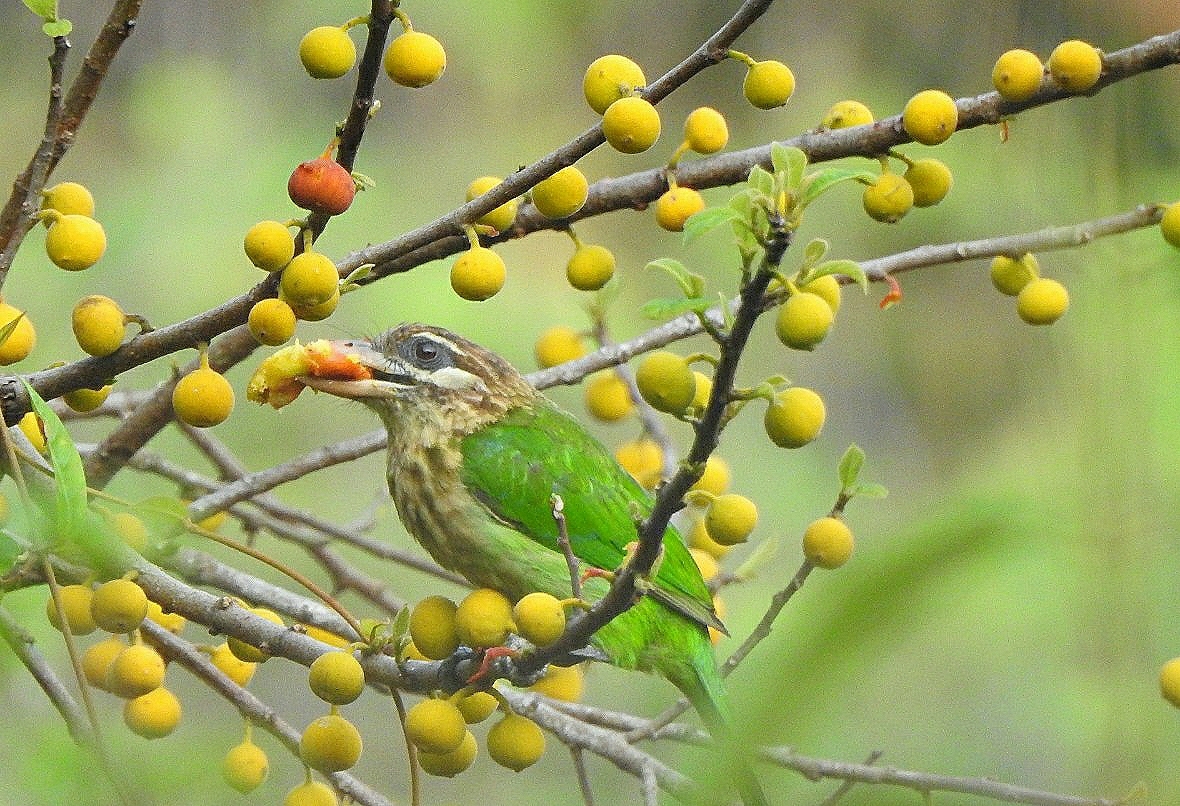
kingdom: Animalia
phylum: Chordata
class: Aves
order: Piciformes
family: Megalaimidae
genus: Psilopogon
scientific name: Psilopogon viridis
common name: White-cheeked barbet
